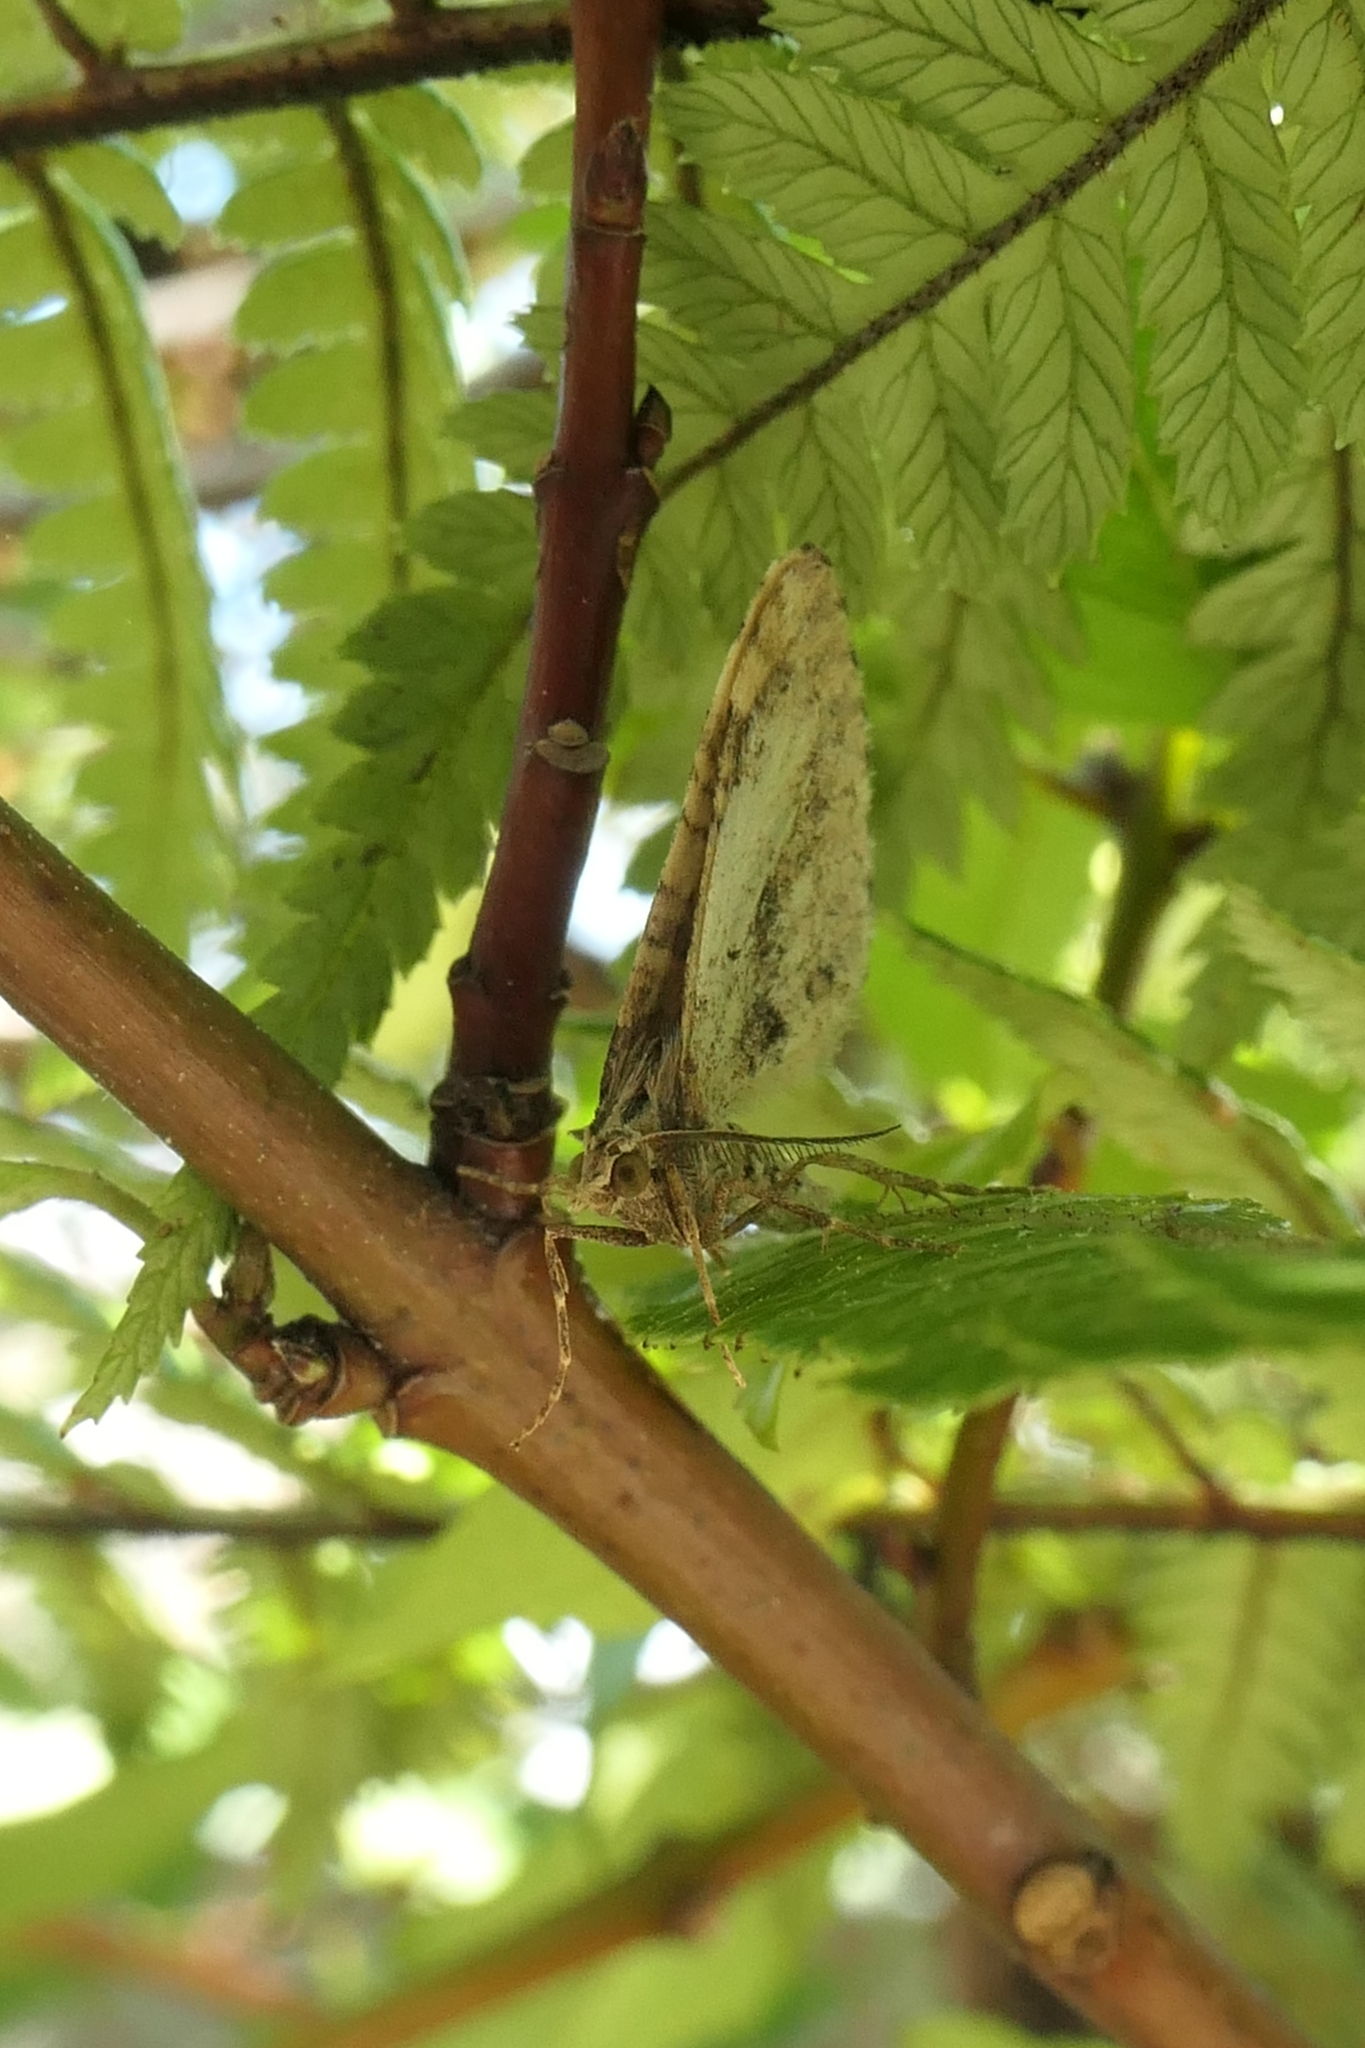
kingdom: Animalia
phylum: Arthropoda
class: Insecta
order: Lepidoptera
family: Geometridae
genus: Asaphodes
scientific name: Asaphodes aegrota
